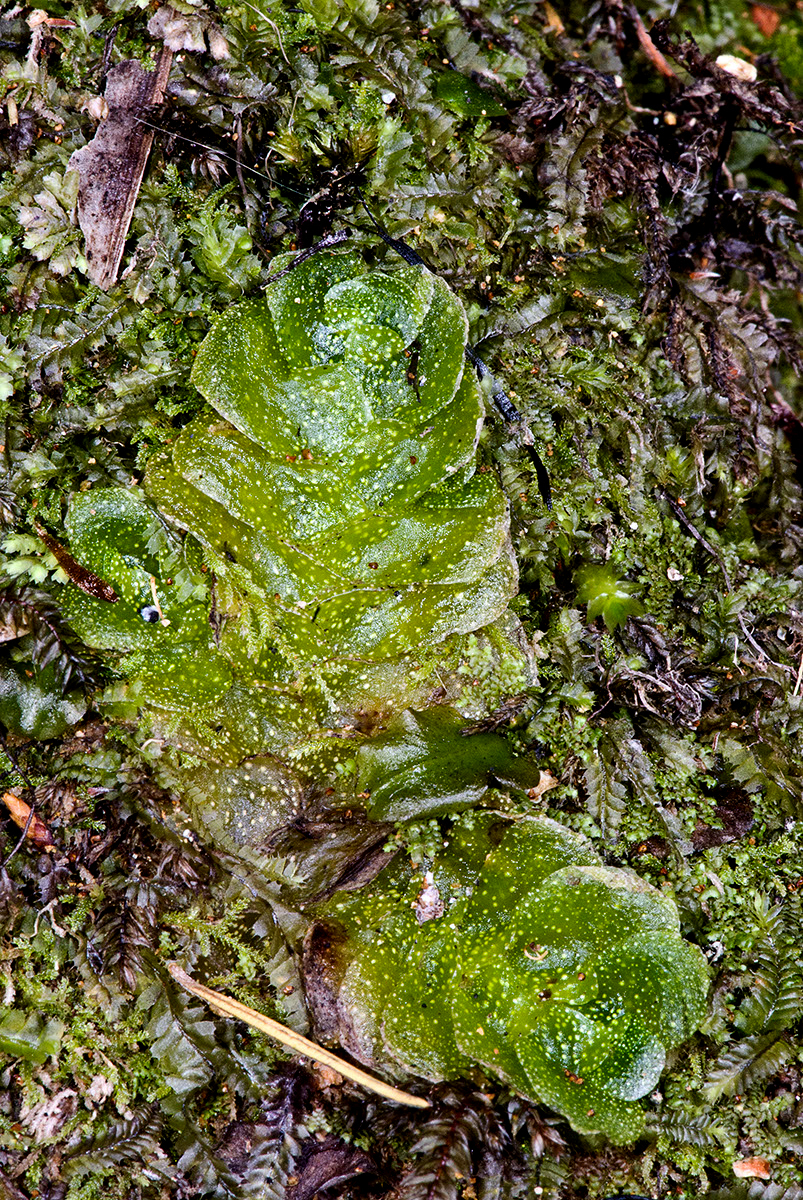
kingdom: Plantae
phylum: Marchantiophyta
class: Haplomitriopsida
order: Treubiales
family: Treubiaceae
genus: Treubia
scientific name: Treubia lacunosa
